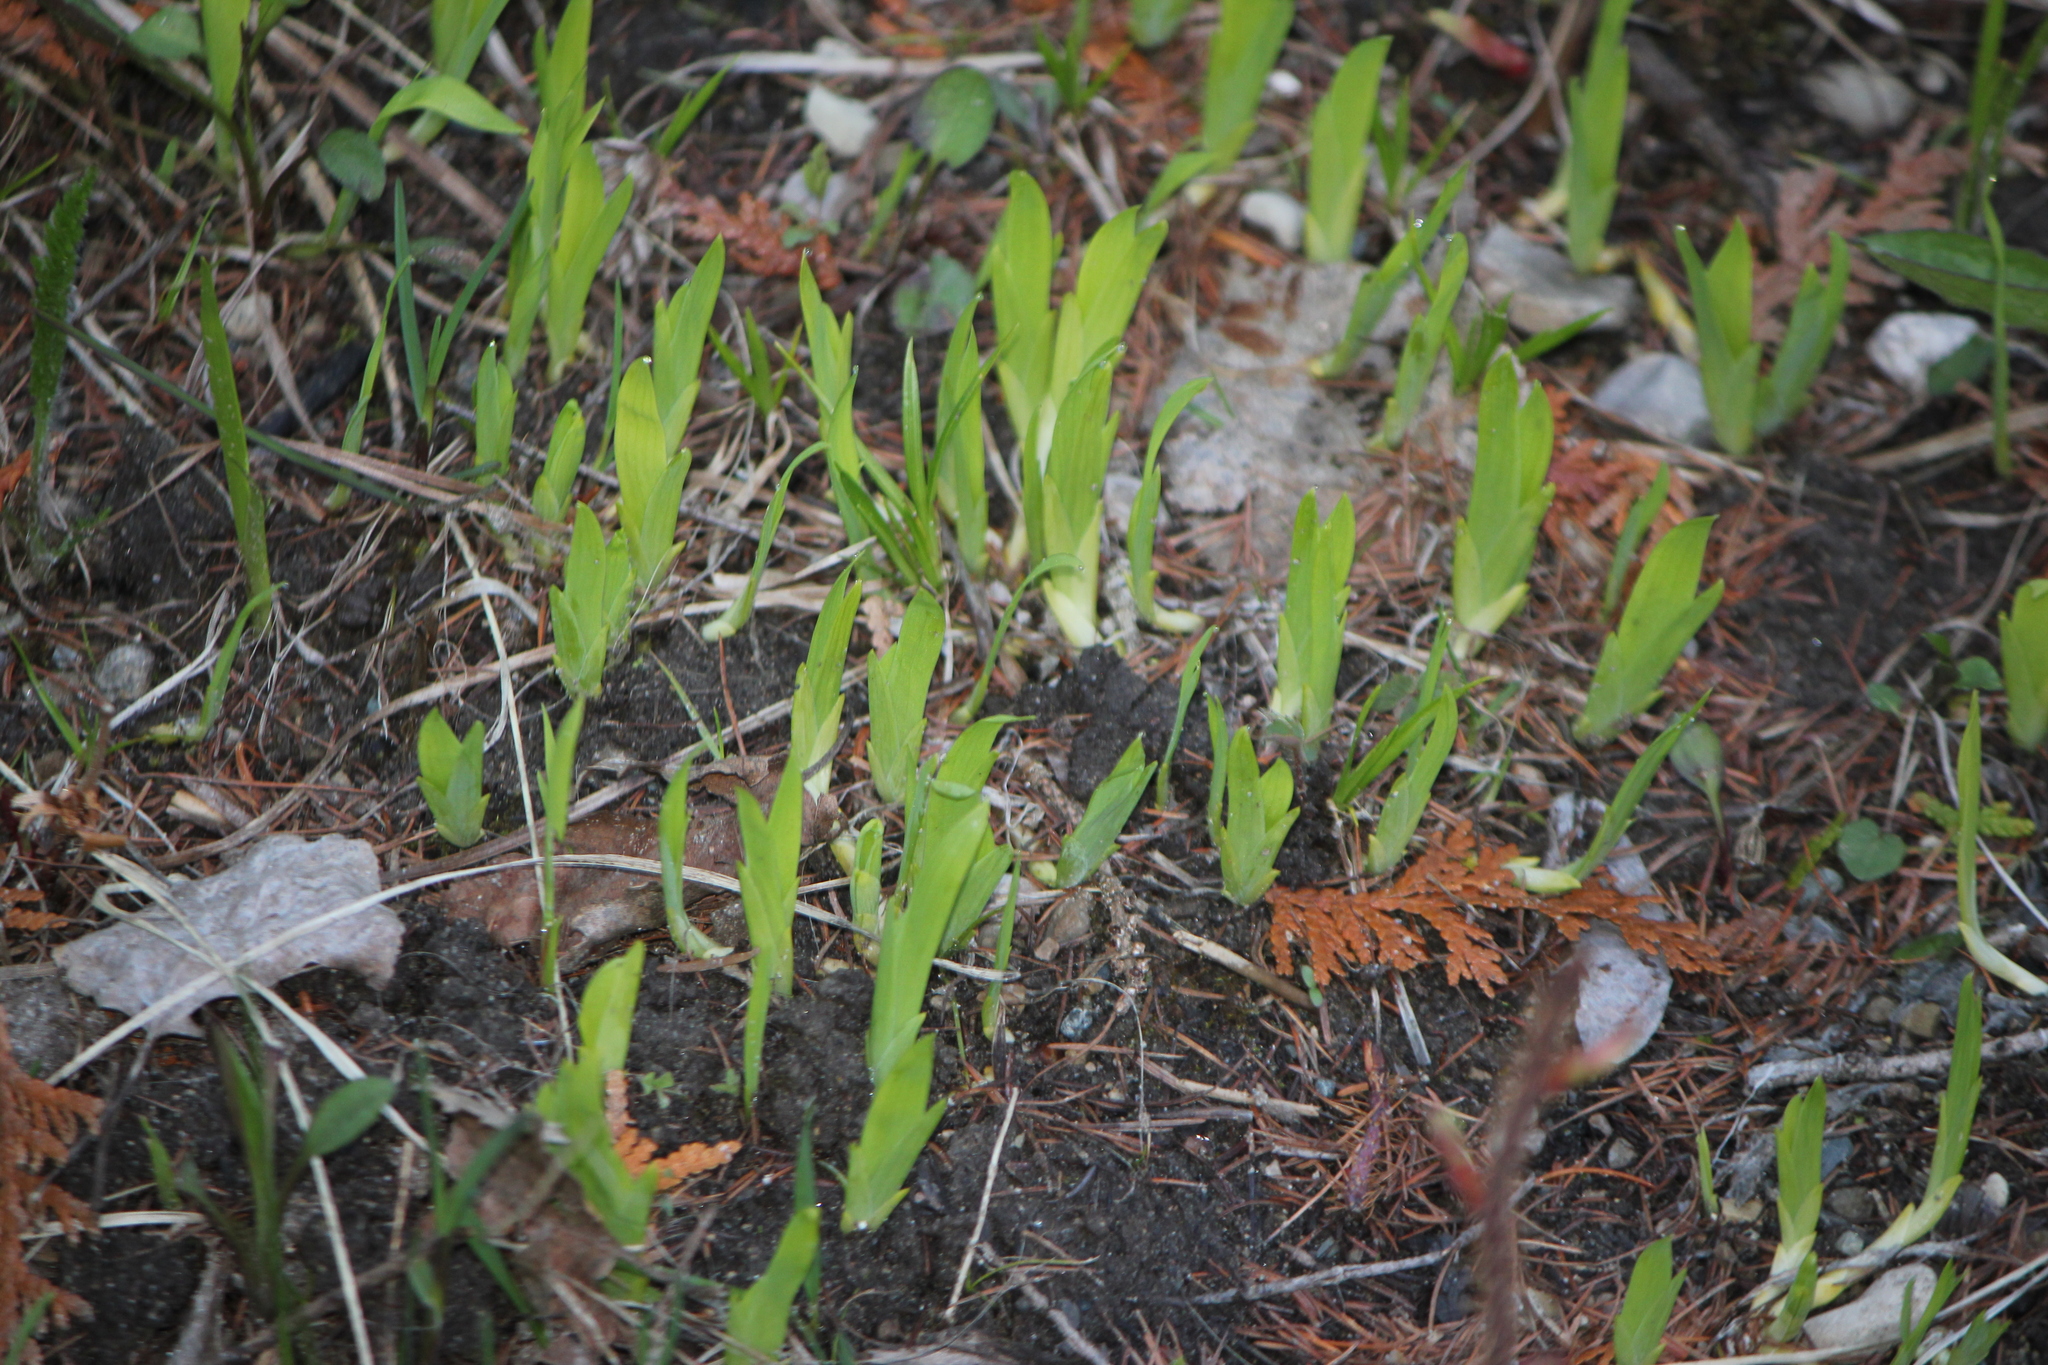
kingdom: Plantae
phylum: Tracheophyta
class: Liliopsida
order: Asparagales
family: Iridaceae
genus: Iris
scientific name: Iris lacustris
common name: Dwarf lake iris
